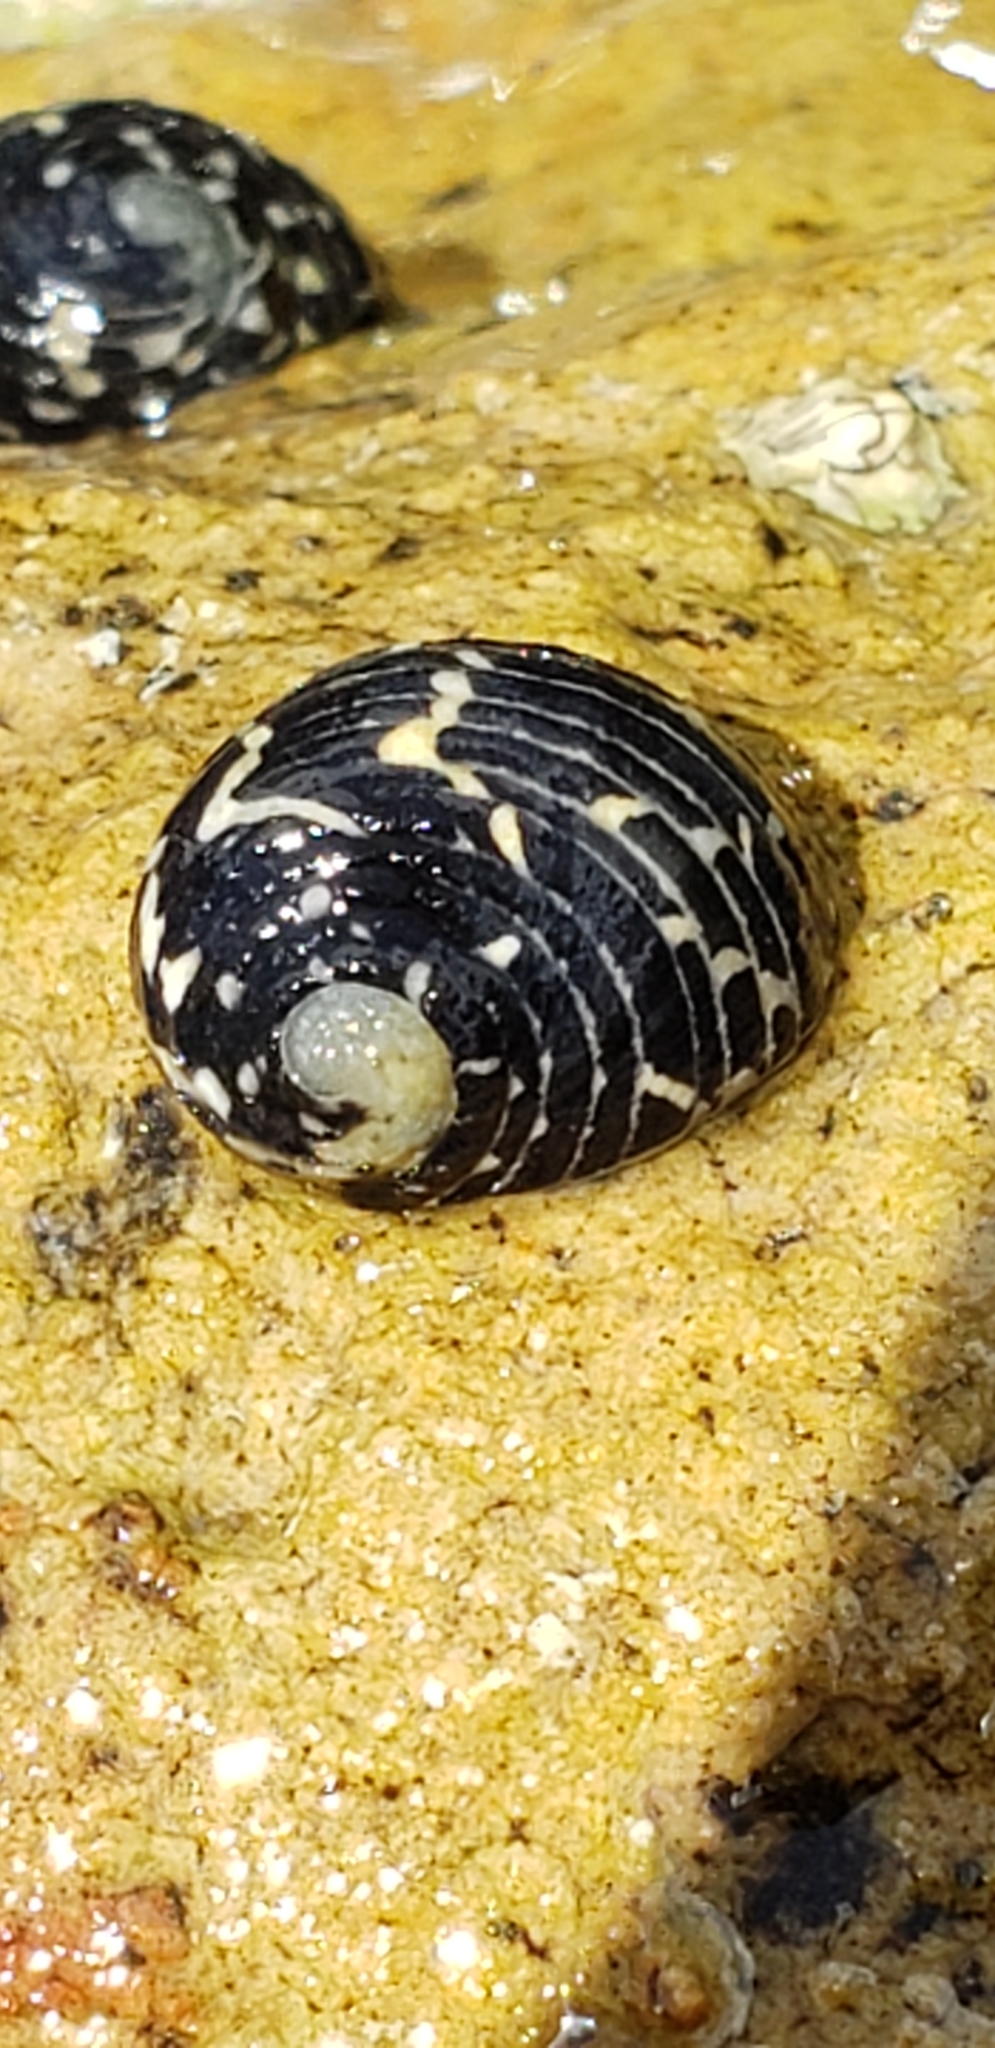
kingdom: Animalia
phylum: Mollusca
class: Gastropoda
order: Cycloneritida
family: Neritidae
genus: Nerita
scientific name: Nerita tessellata
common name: Checkered nerite
